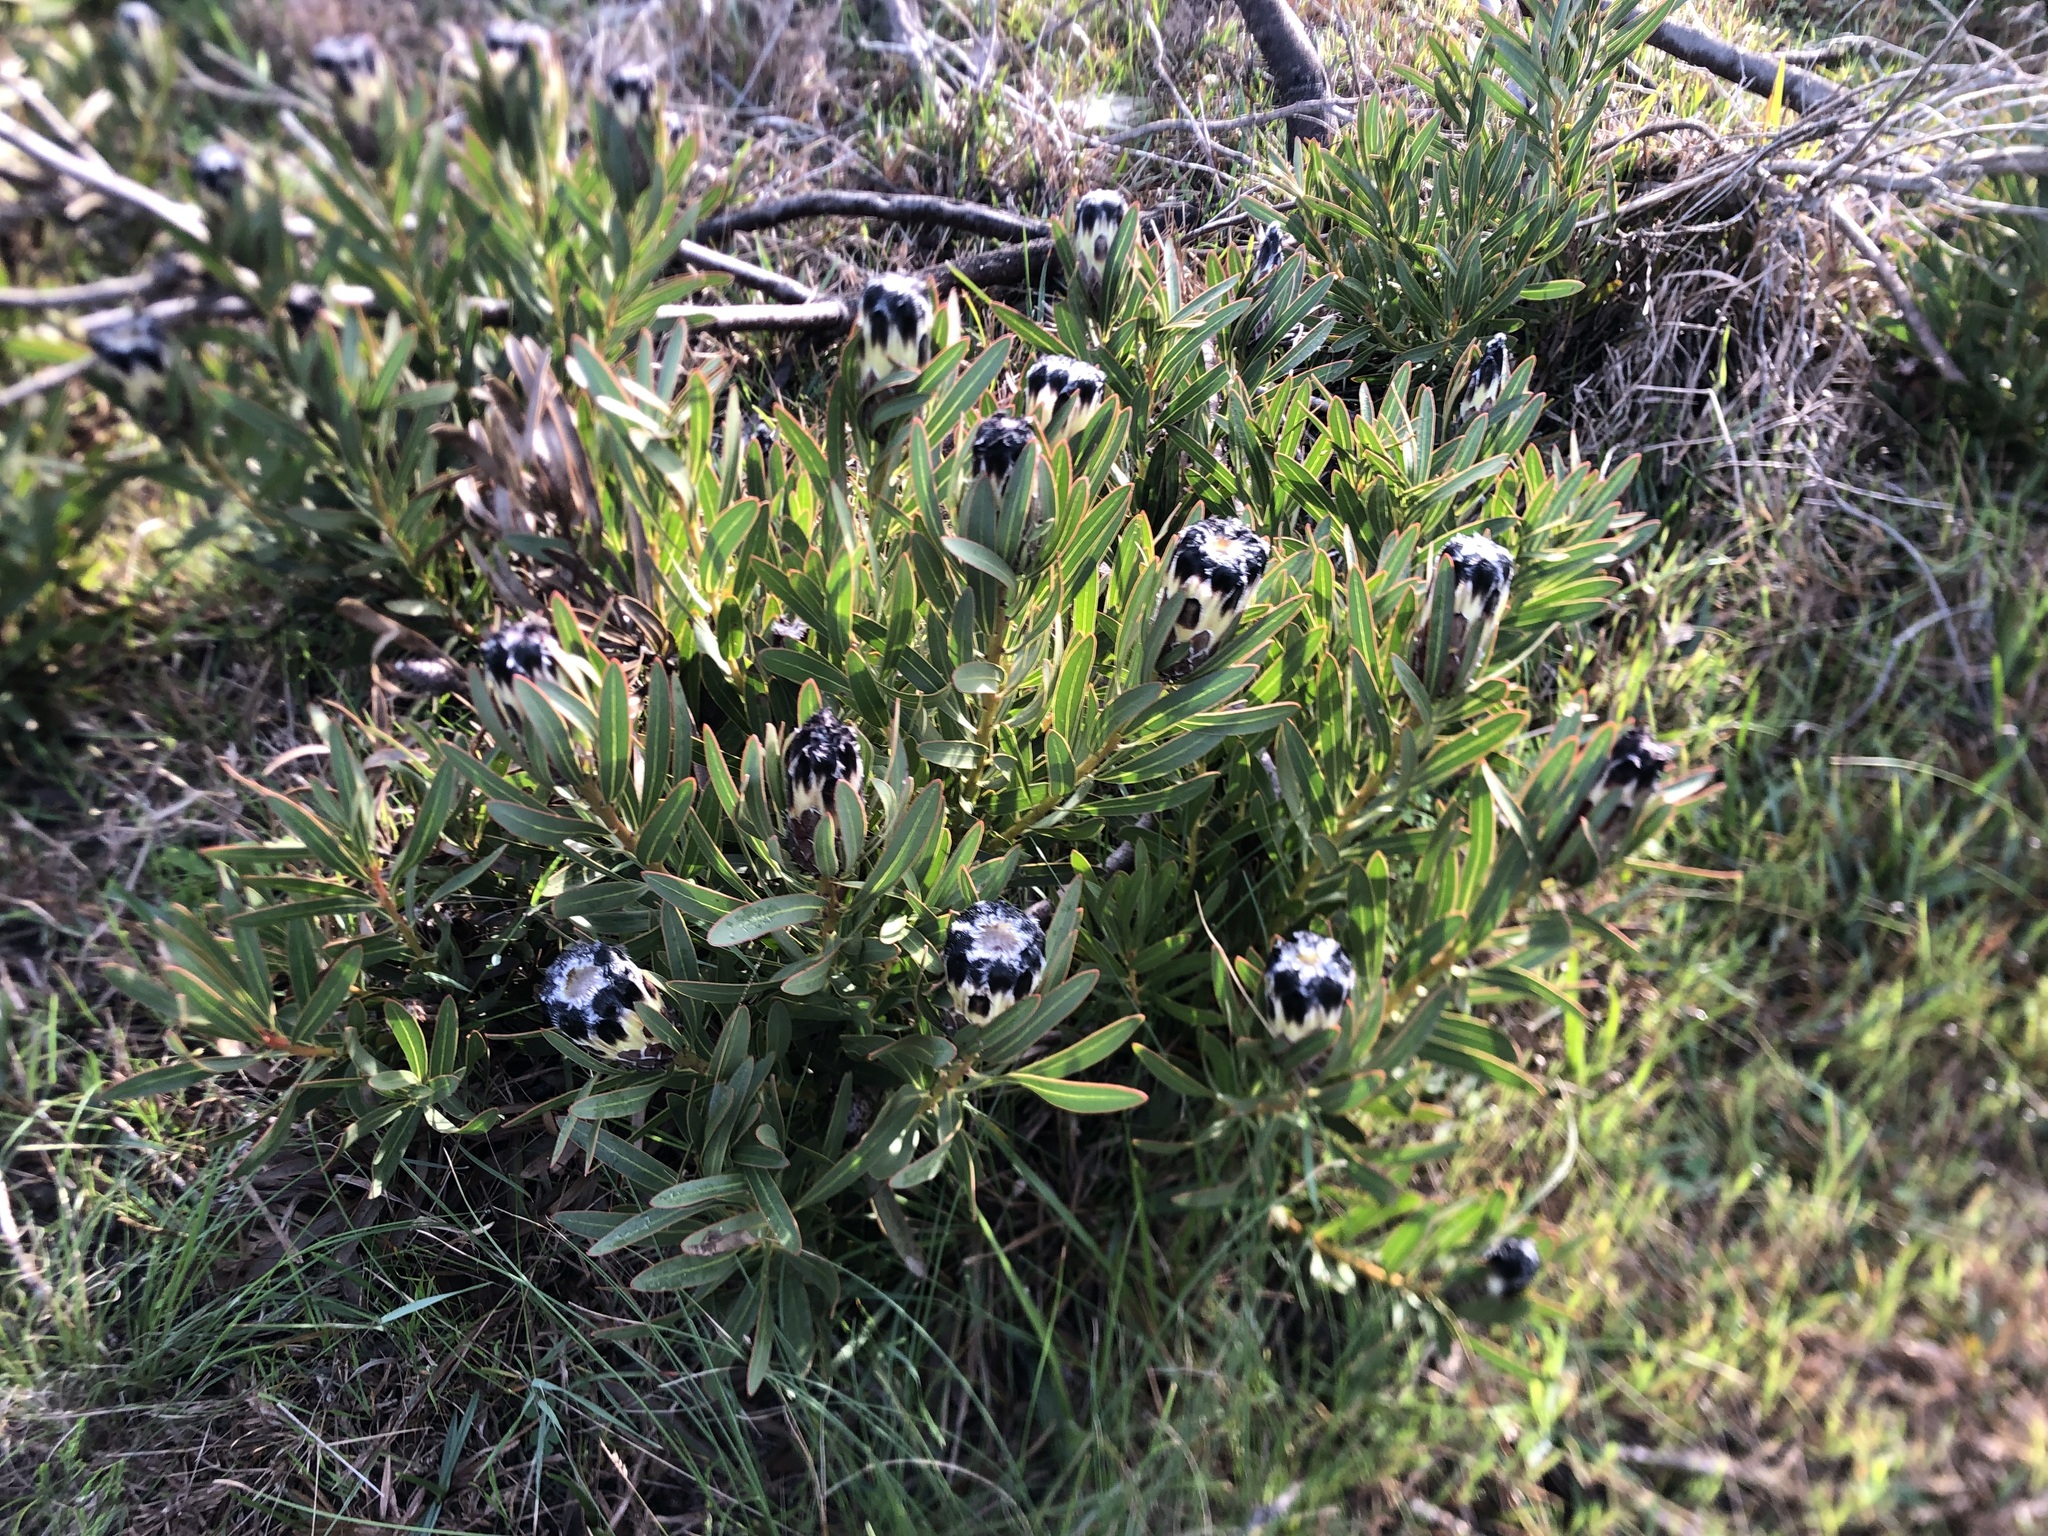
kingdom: Plantae
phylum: Tracheophyta
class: Magnoliopsida
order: Proteales
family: Proteaceae
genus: Protea
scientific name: Protea lepidocarpodendron
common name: Black-bearded protea
